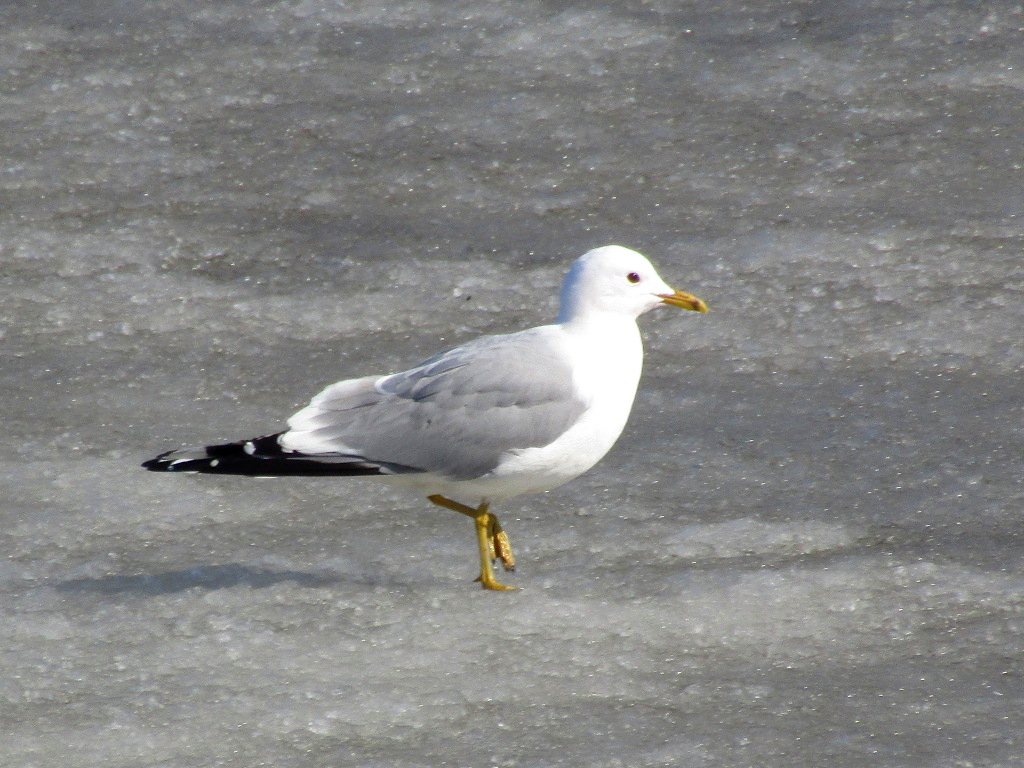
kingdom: Animalia
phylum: Chordata
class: Aves
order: Charadriiformes
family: Laridae
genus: Larus
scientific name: Larus canus
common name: Mew gull
